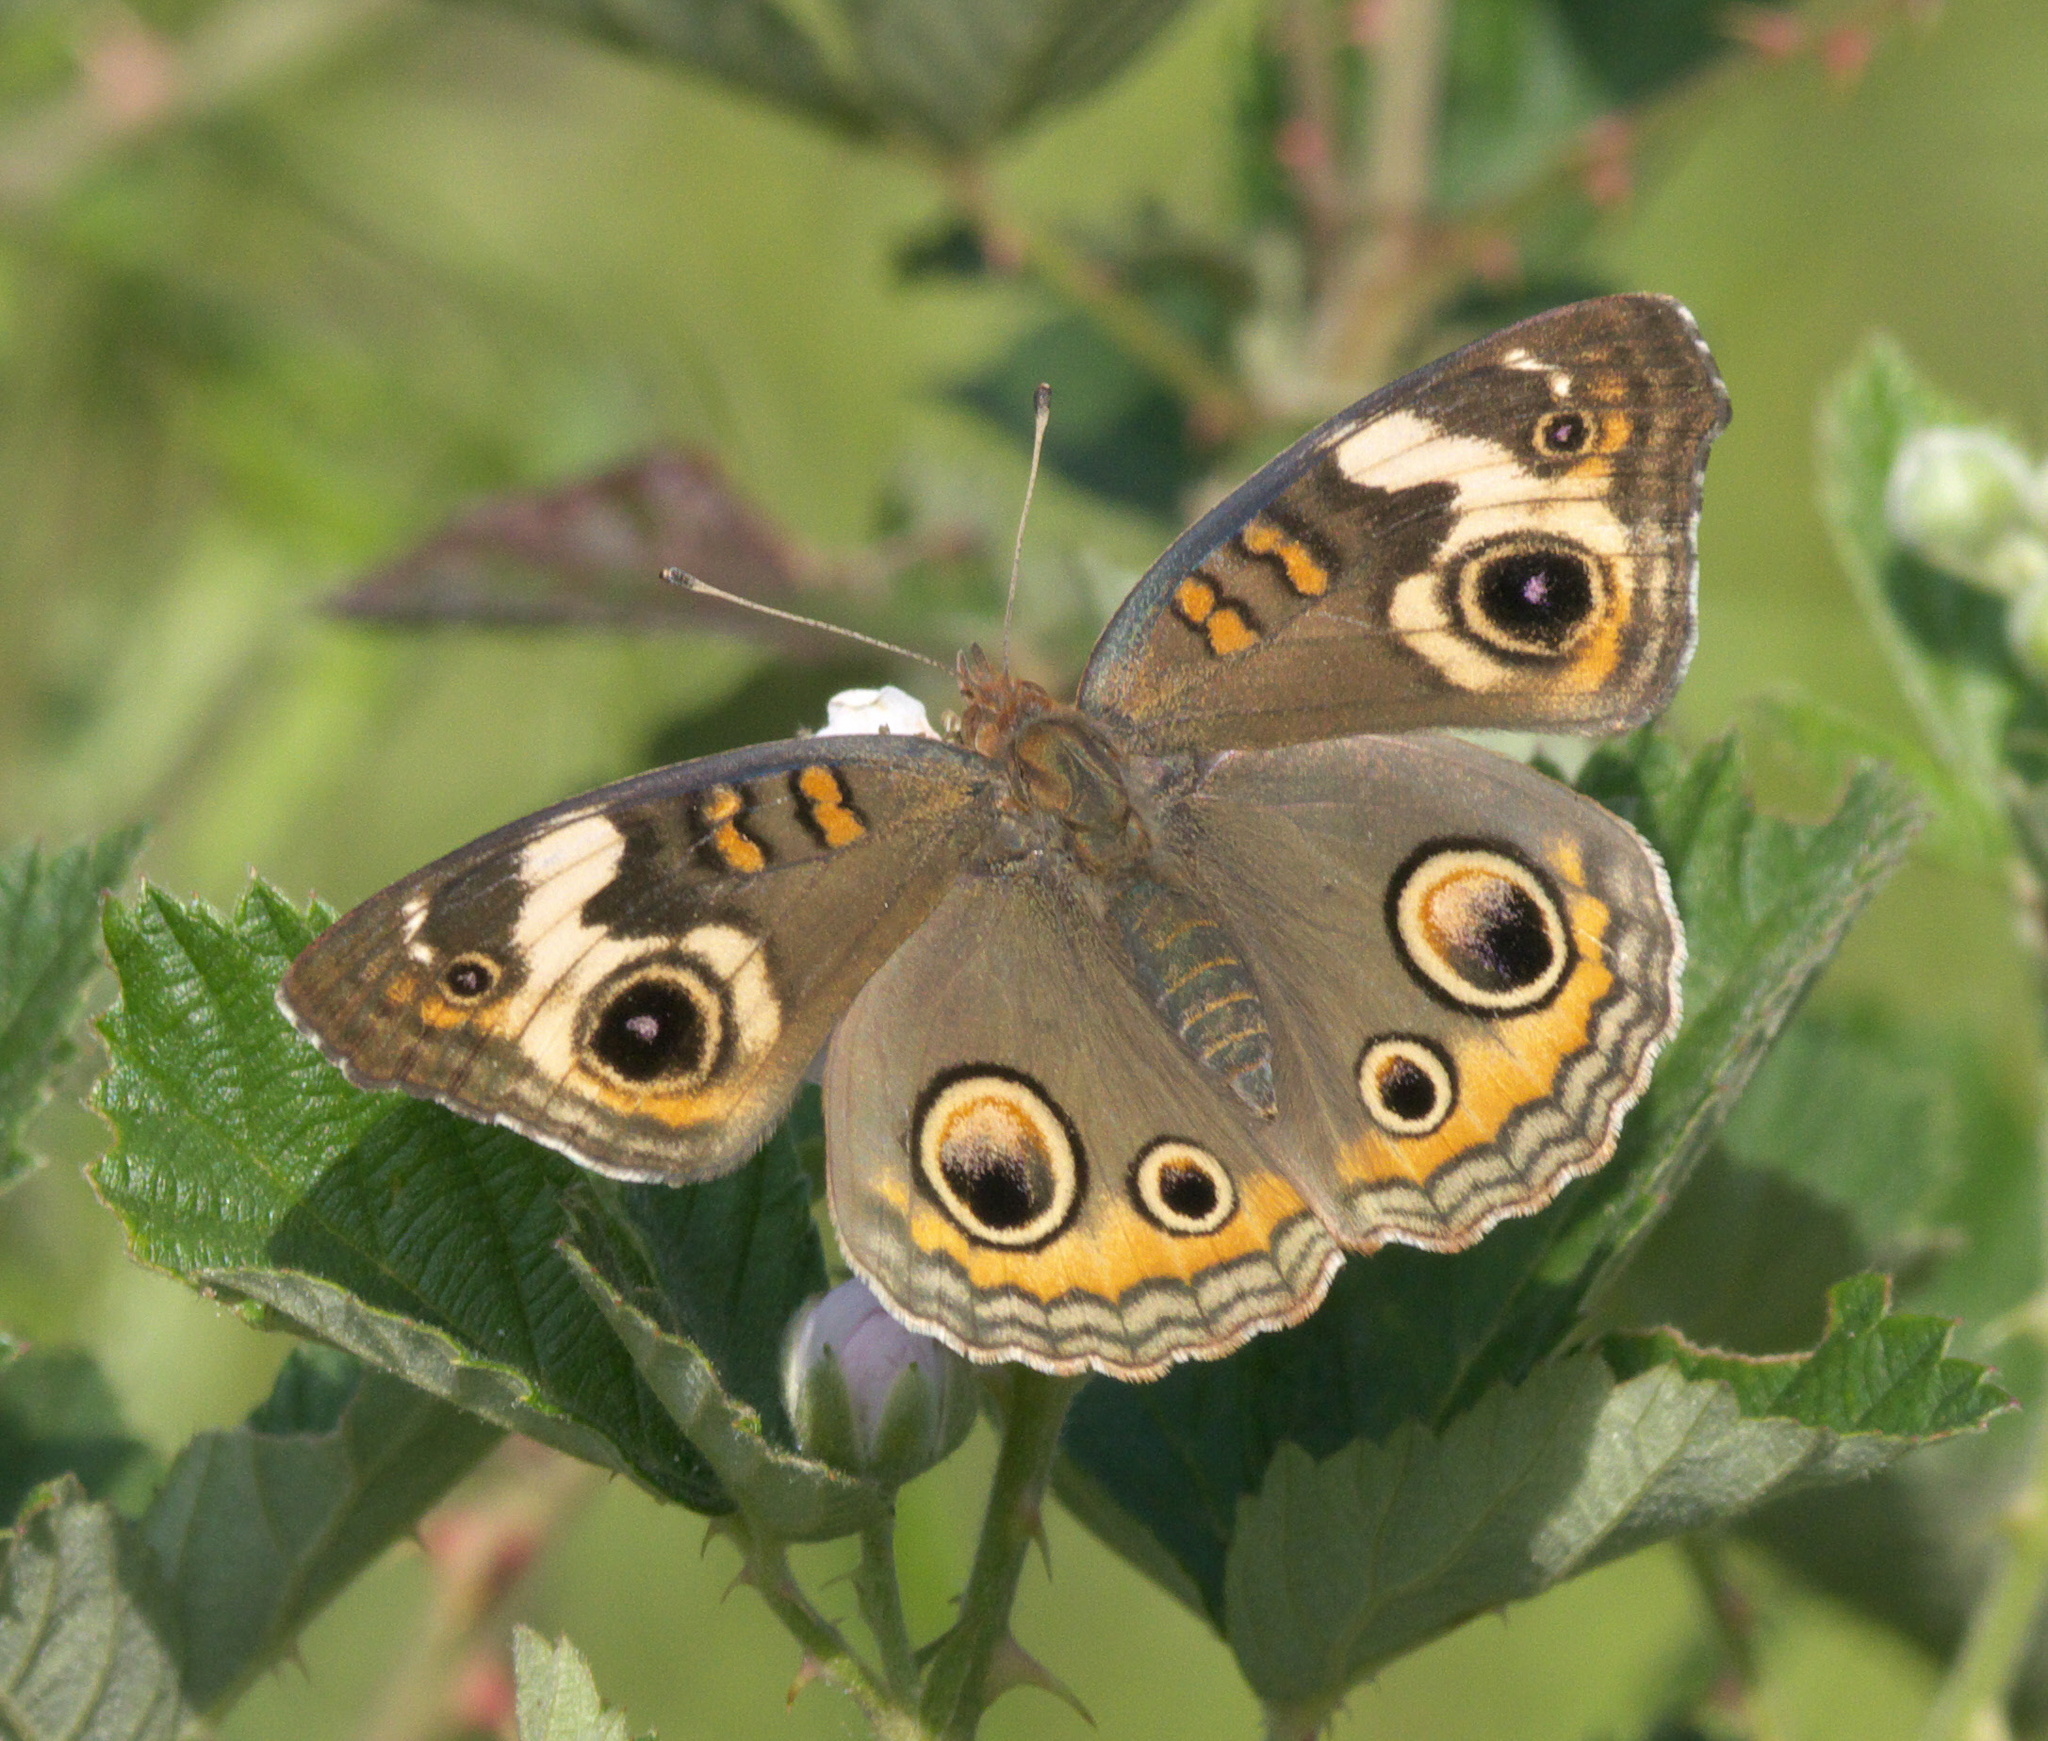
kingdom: Animalia
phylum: Arthropoda
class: Insecta
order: Lepidoptera
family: Nymphalidae
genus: Junonia
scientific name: Junonia coenia
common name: Common buckeye
